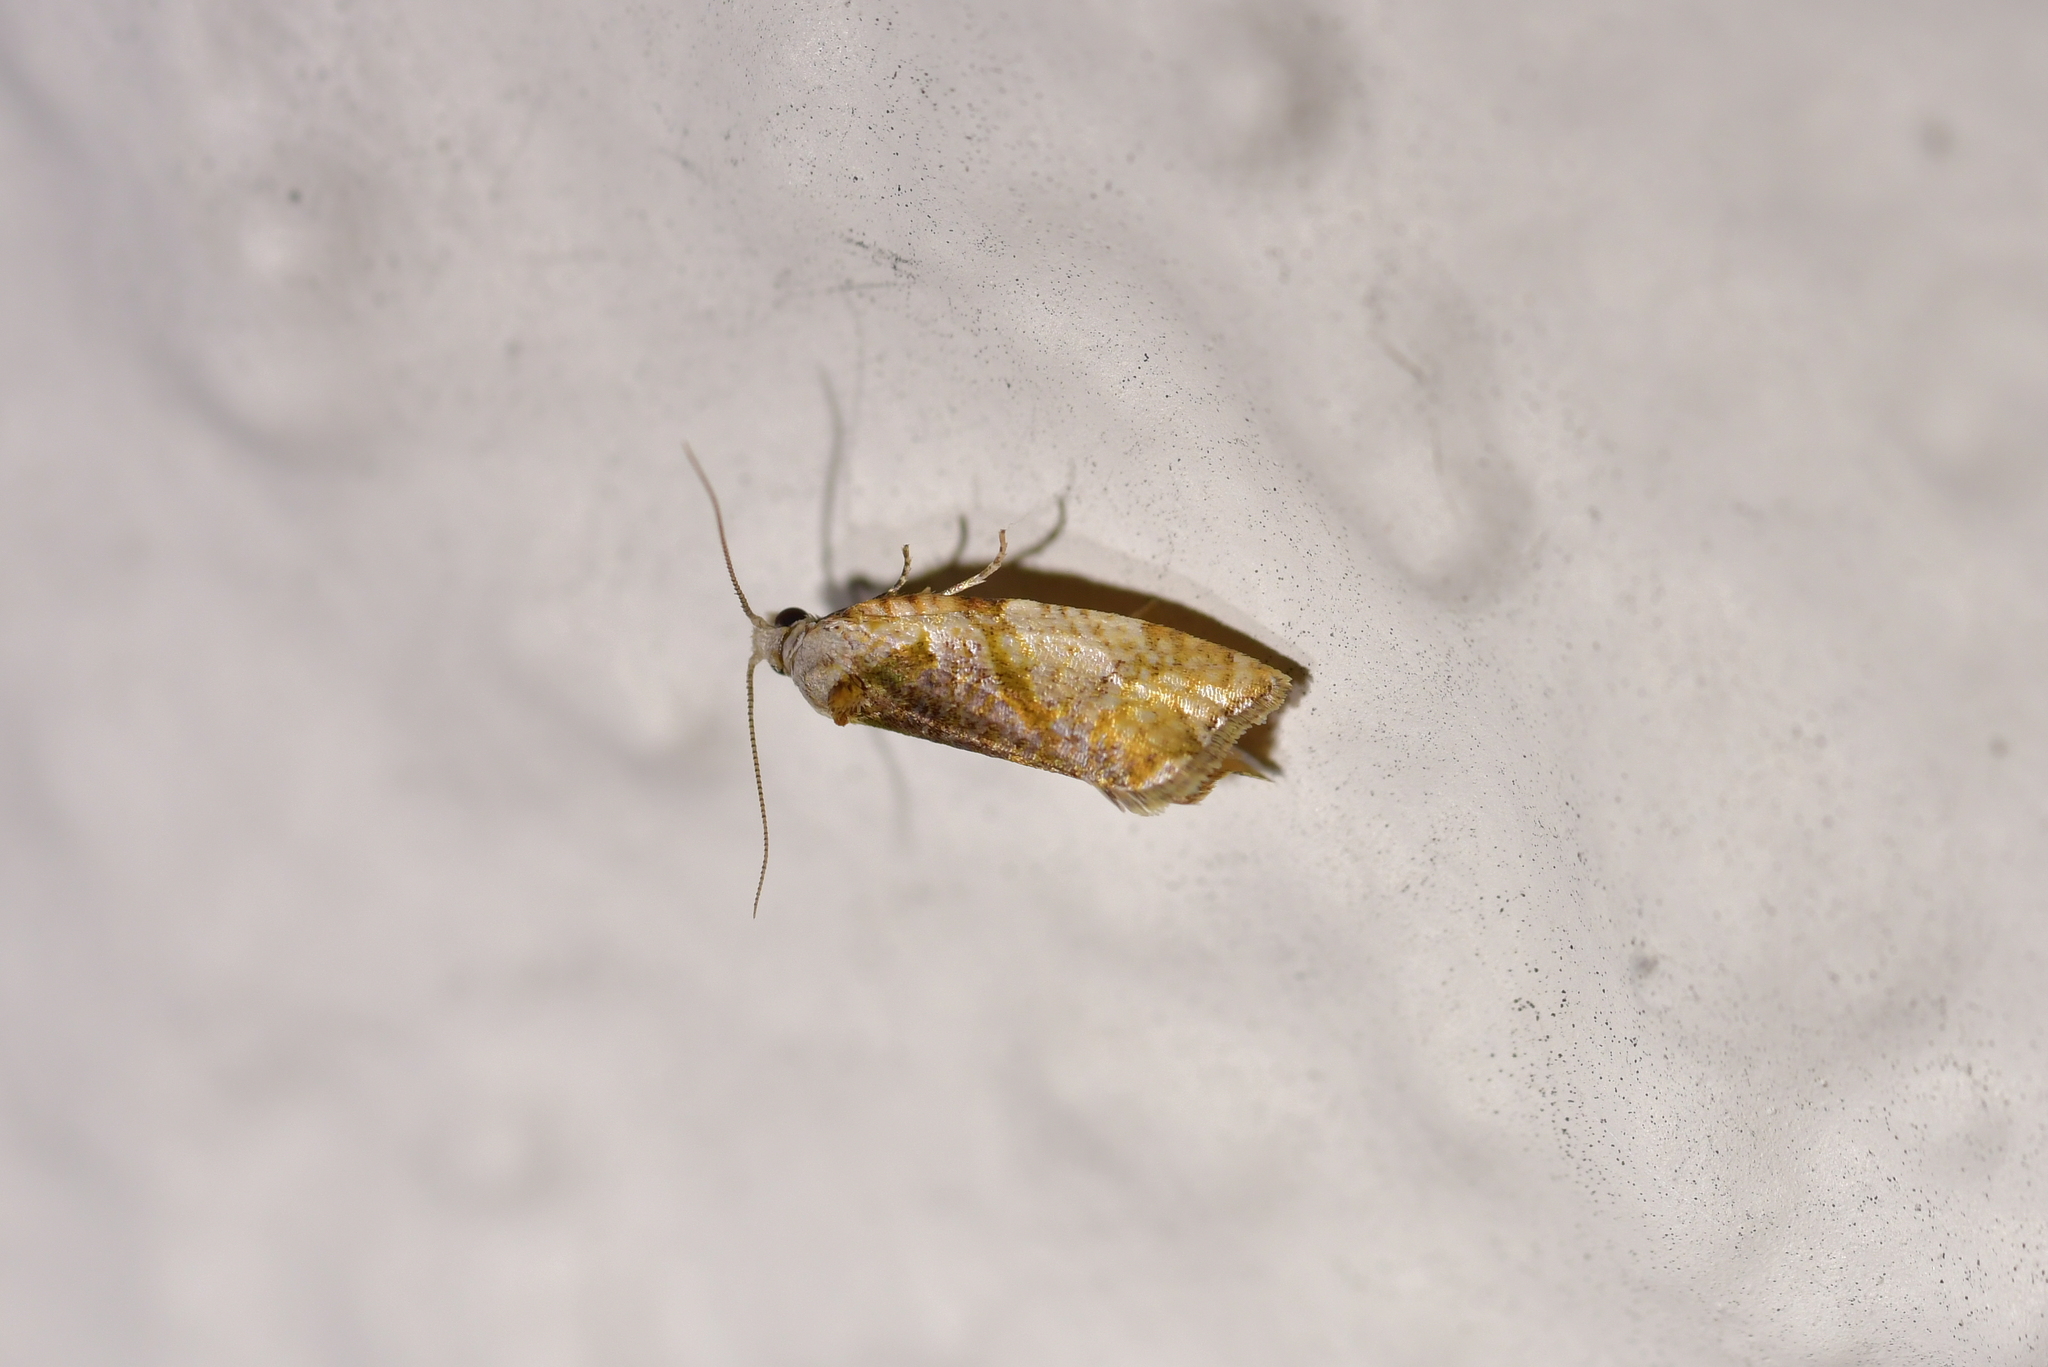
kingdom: Animalia
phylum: Arthropoda
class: Insecta
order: Lepidoptera
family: Tortricidae
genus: Pyrgotis
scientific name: Pyrgotis plagiatana
